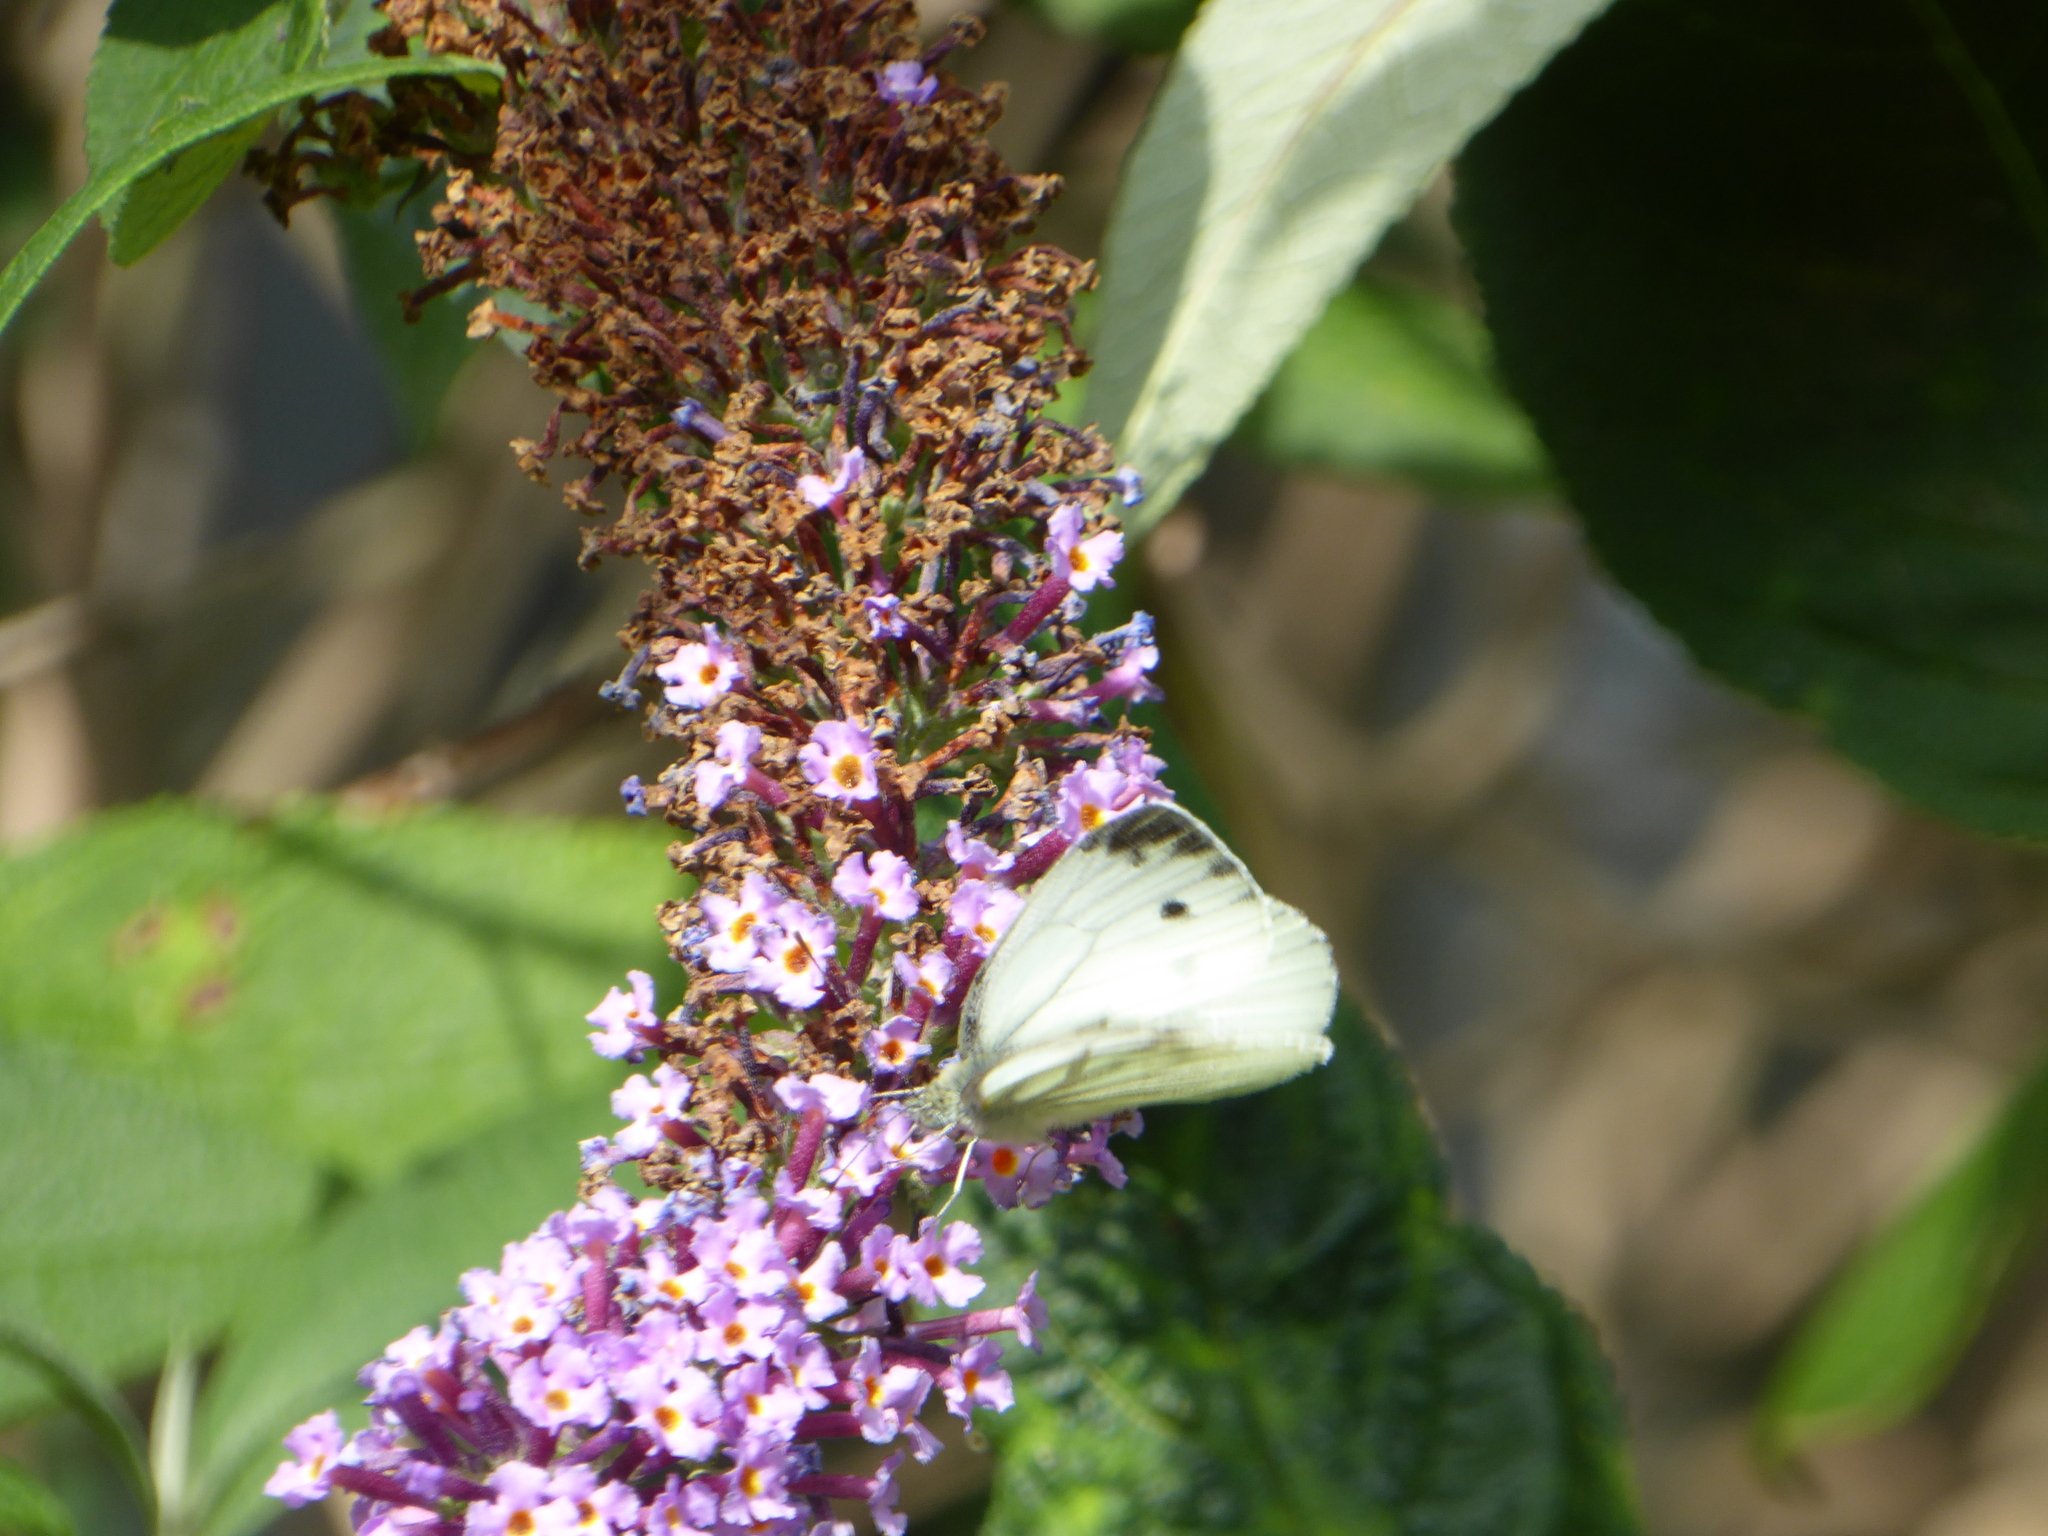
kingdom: Animalia
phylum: Arthropoda
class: Insecta
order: Lepidoptera
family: Pieridae
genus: Pieris
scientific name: Pieris napi
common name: Green-veined white
